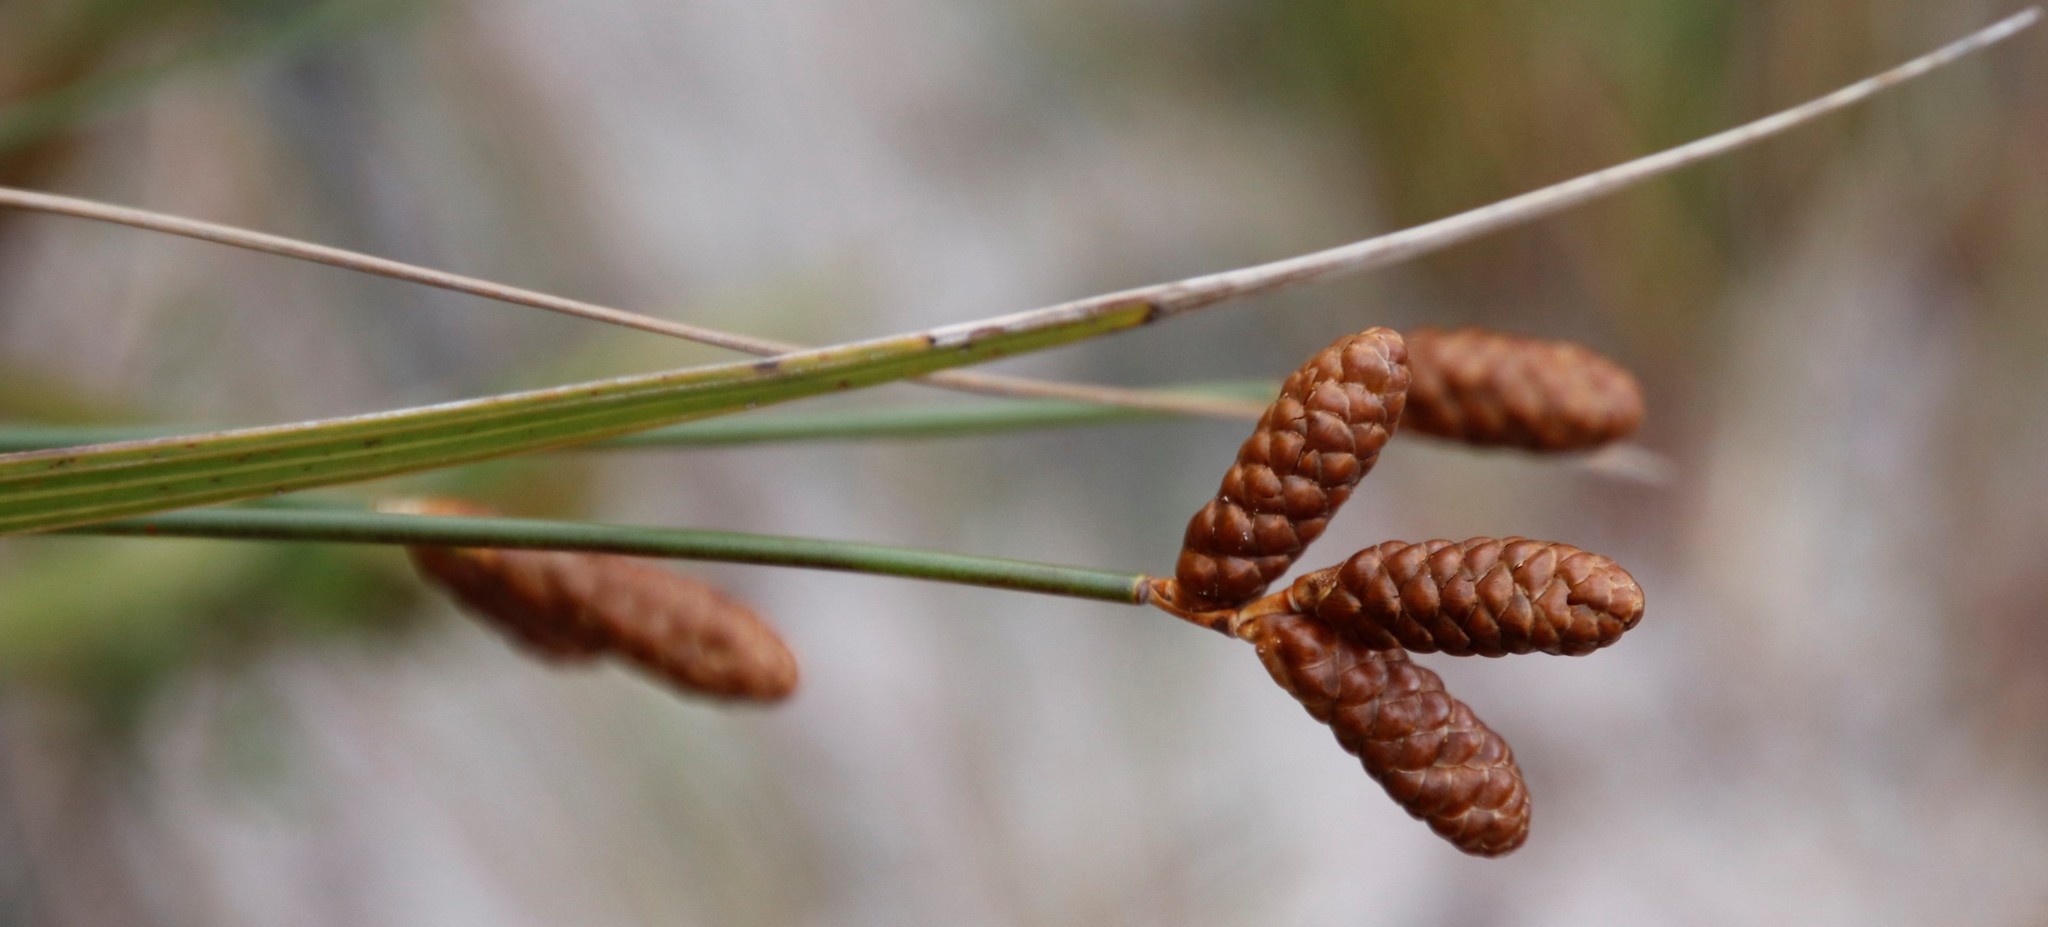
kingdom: Plantae
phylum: Tracheophyta
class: Liliopsida
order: Poales
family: Restionaceae
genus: Nevillea
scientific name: Nevillea obtusissimus
